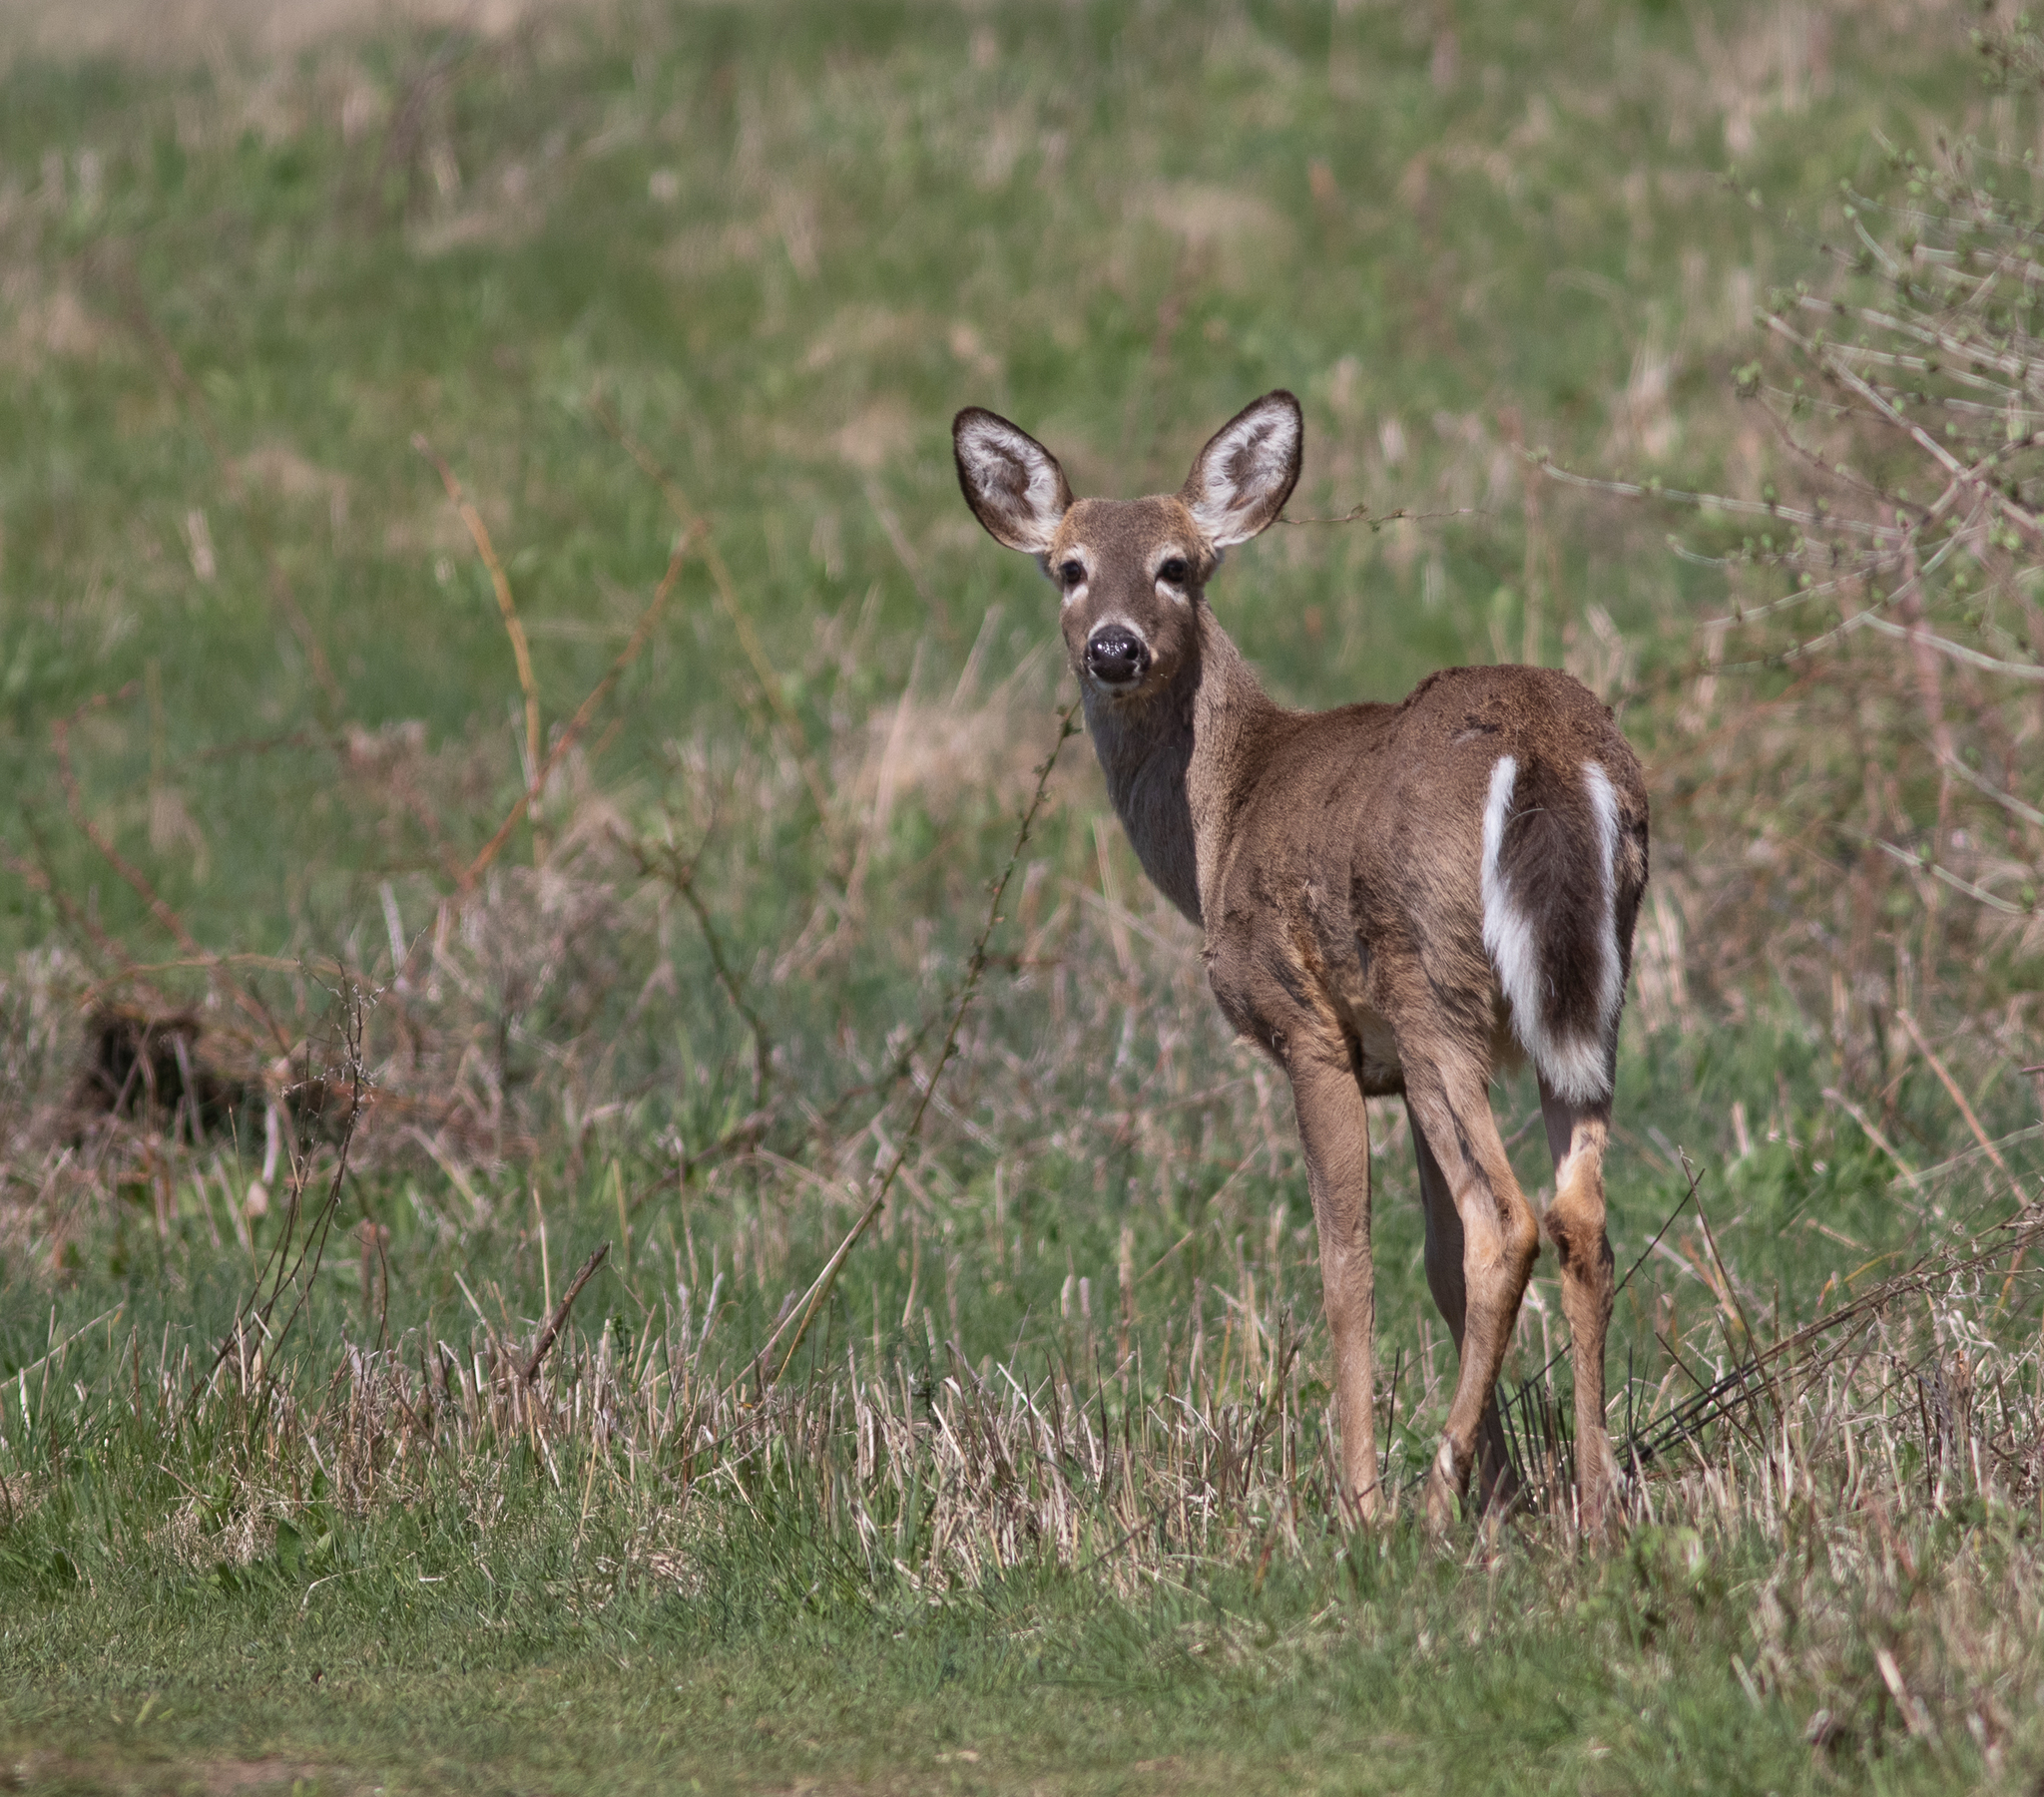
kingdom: Animalia
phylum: Chordata
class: Mammalia
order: Artiodactyla
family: Cervidae
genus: Odocoileus
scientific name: Odocoileus virginianus
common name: White-tailed deer
